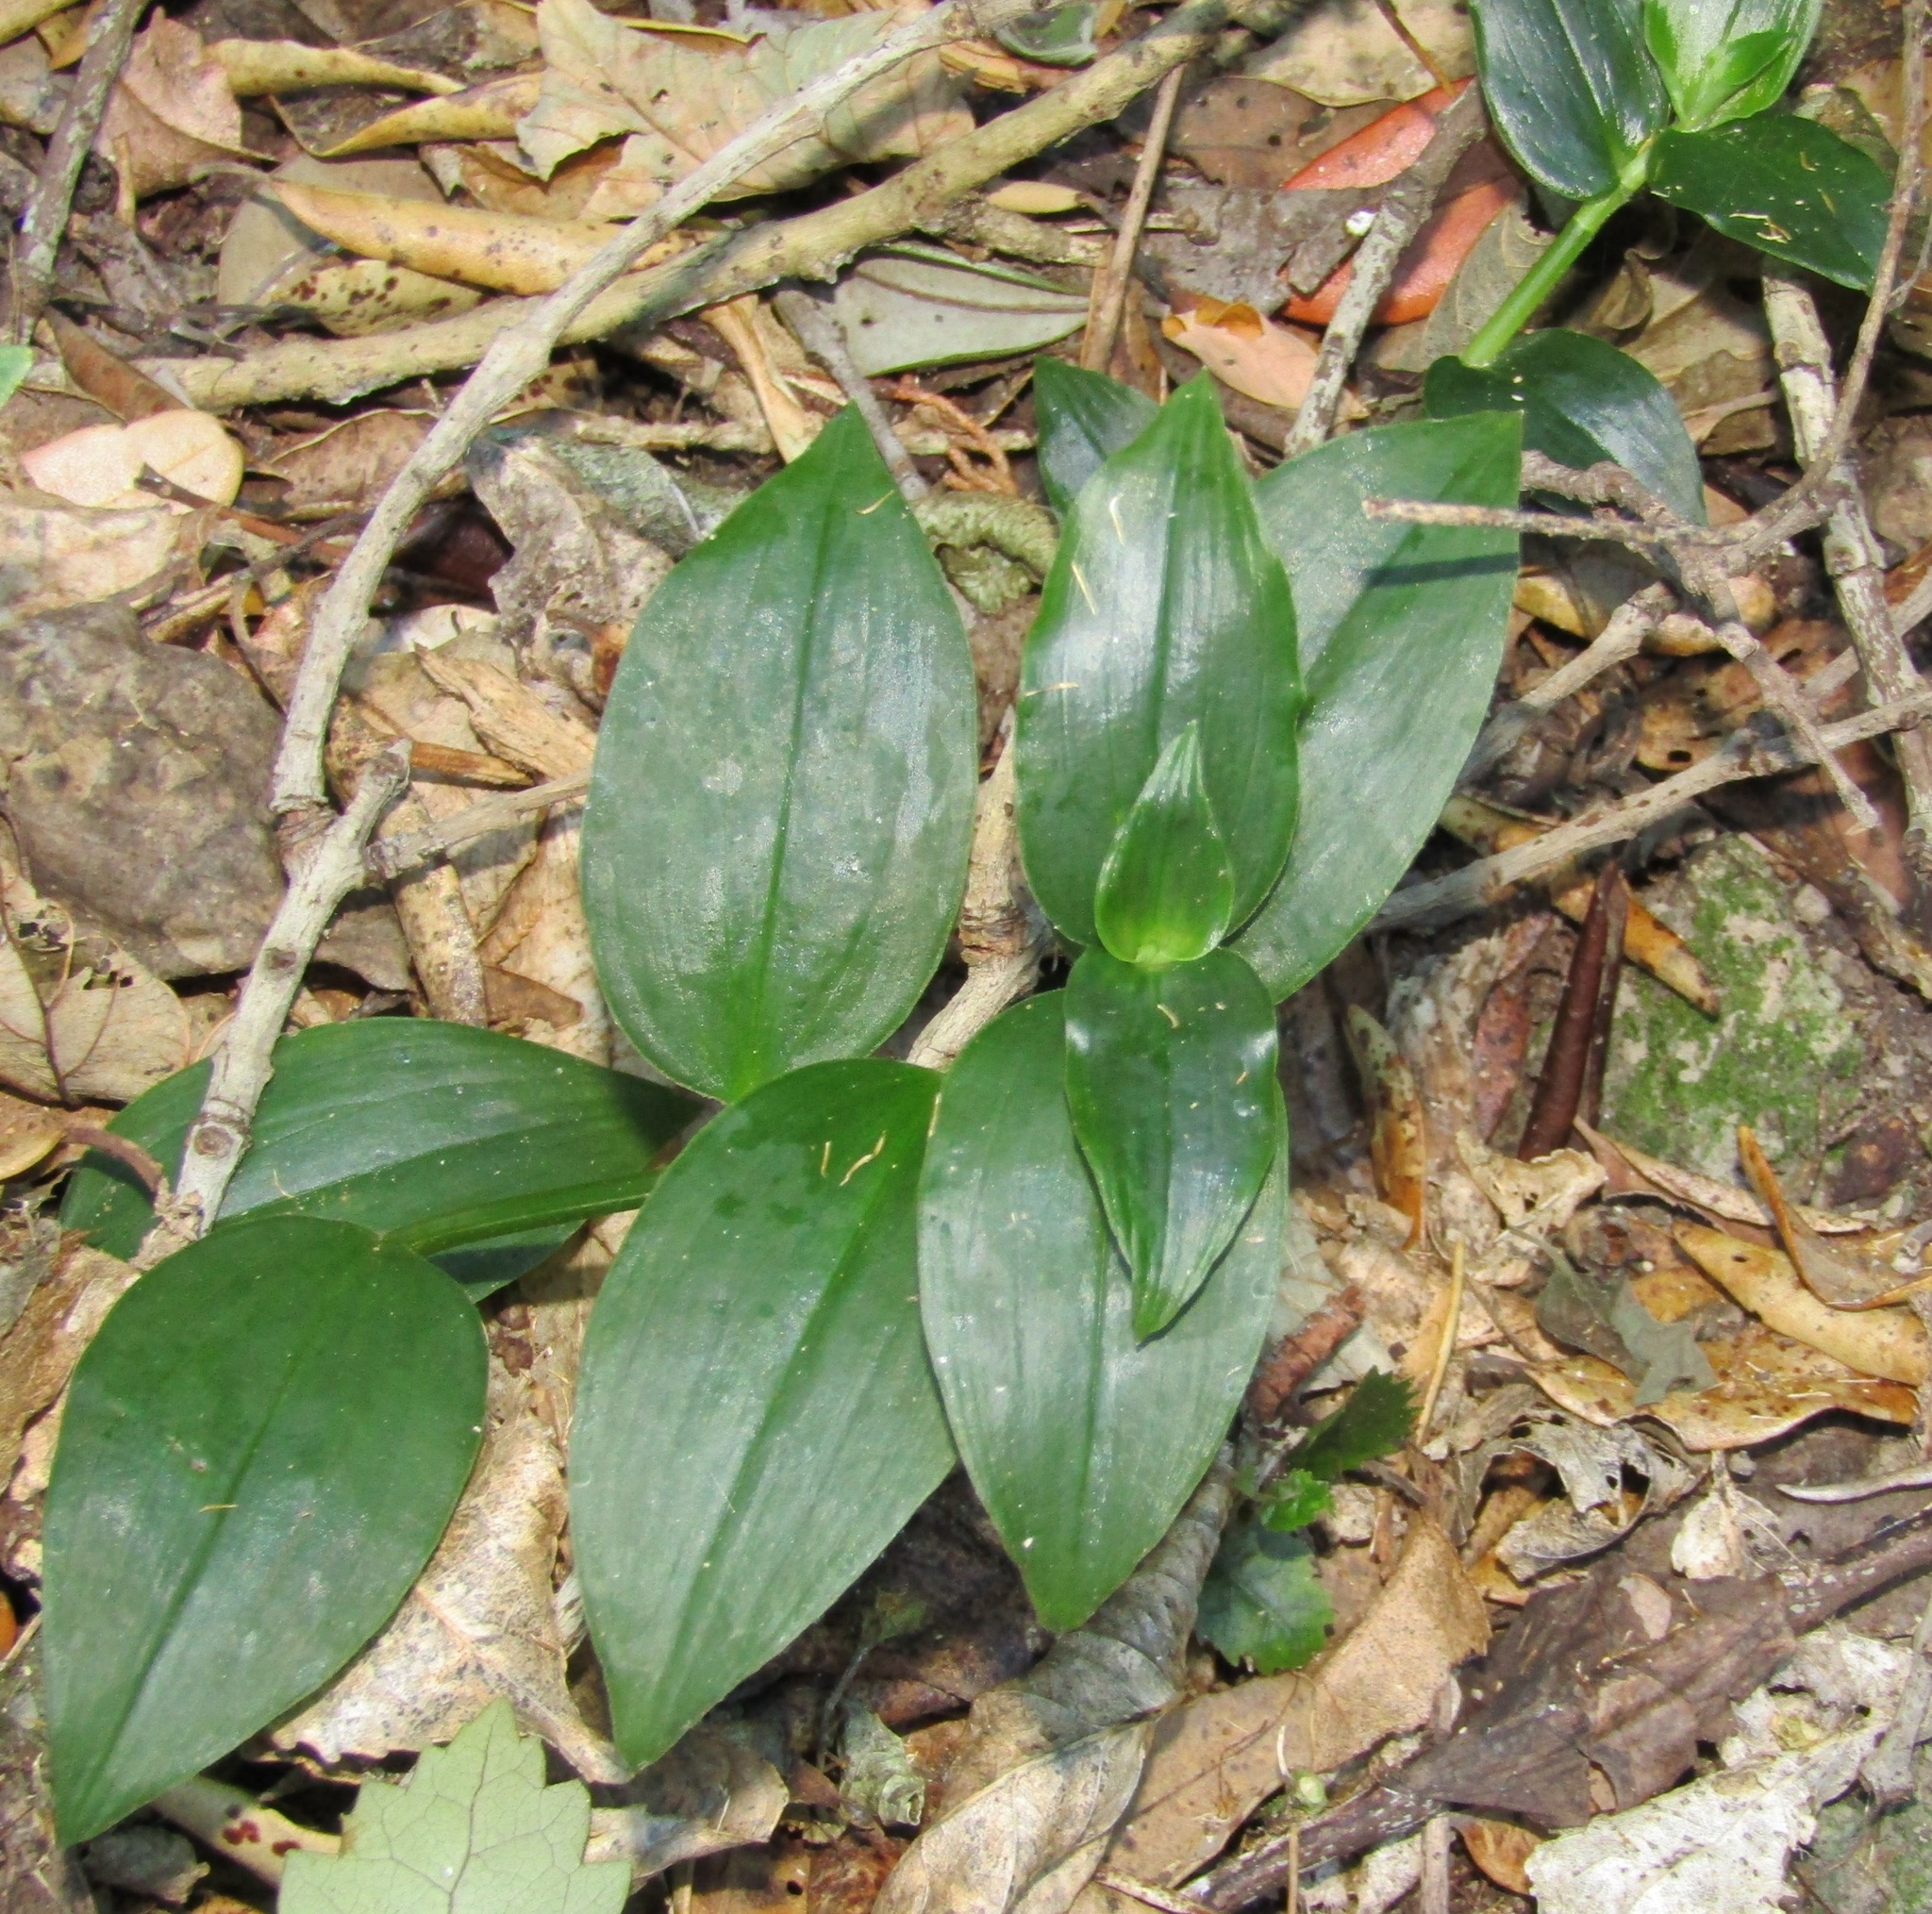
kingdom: Plantae
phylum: Tracheophyta
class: Liliopsida
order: Commelinales
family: Commelinaceae
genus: Tradescantia
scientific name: Tradescantia fluminensis
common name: Wandering-jew
